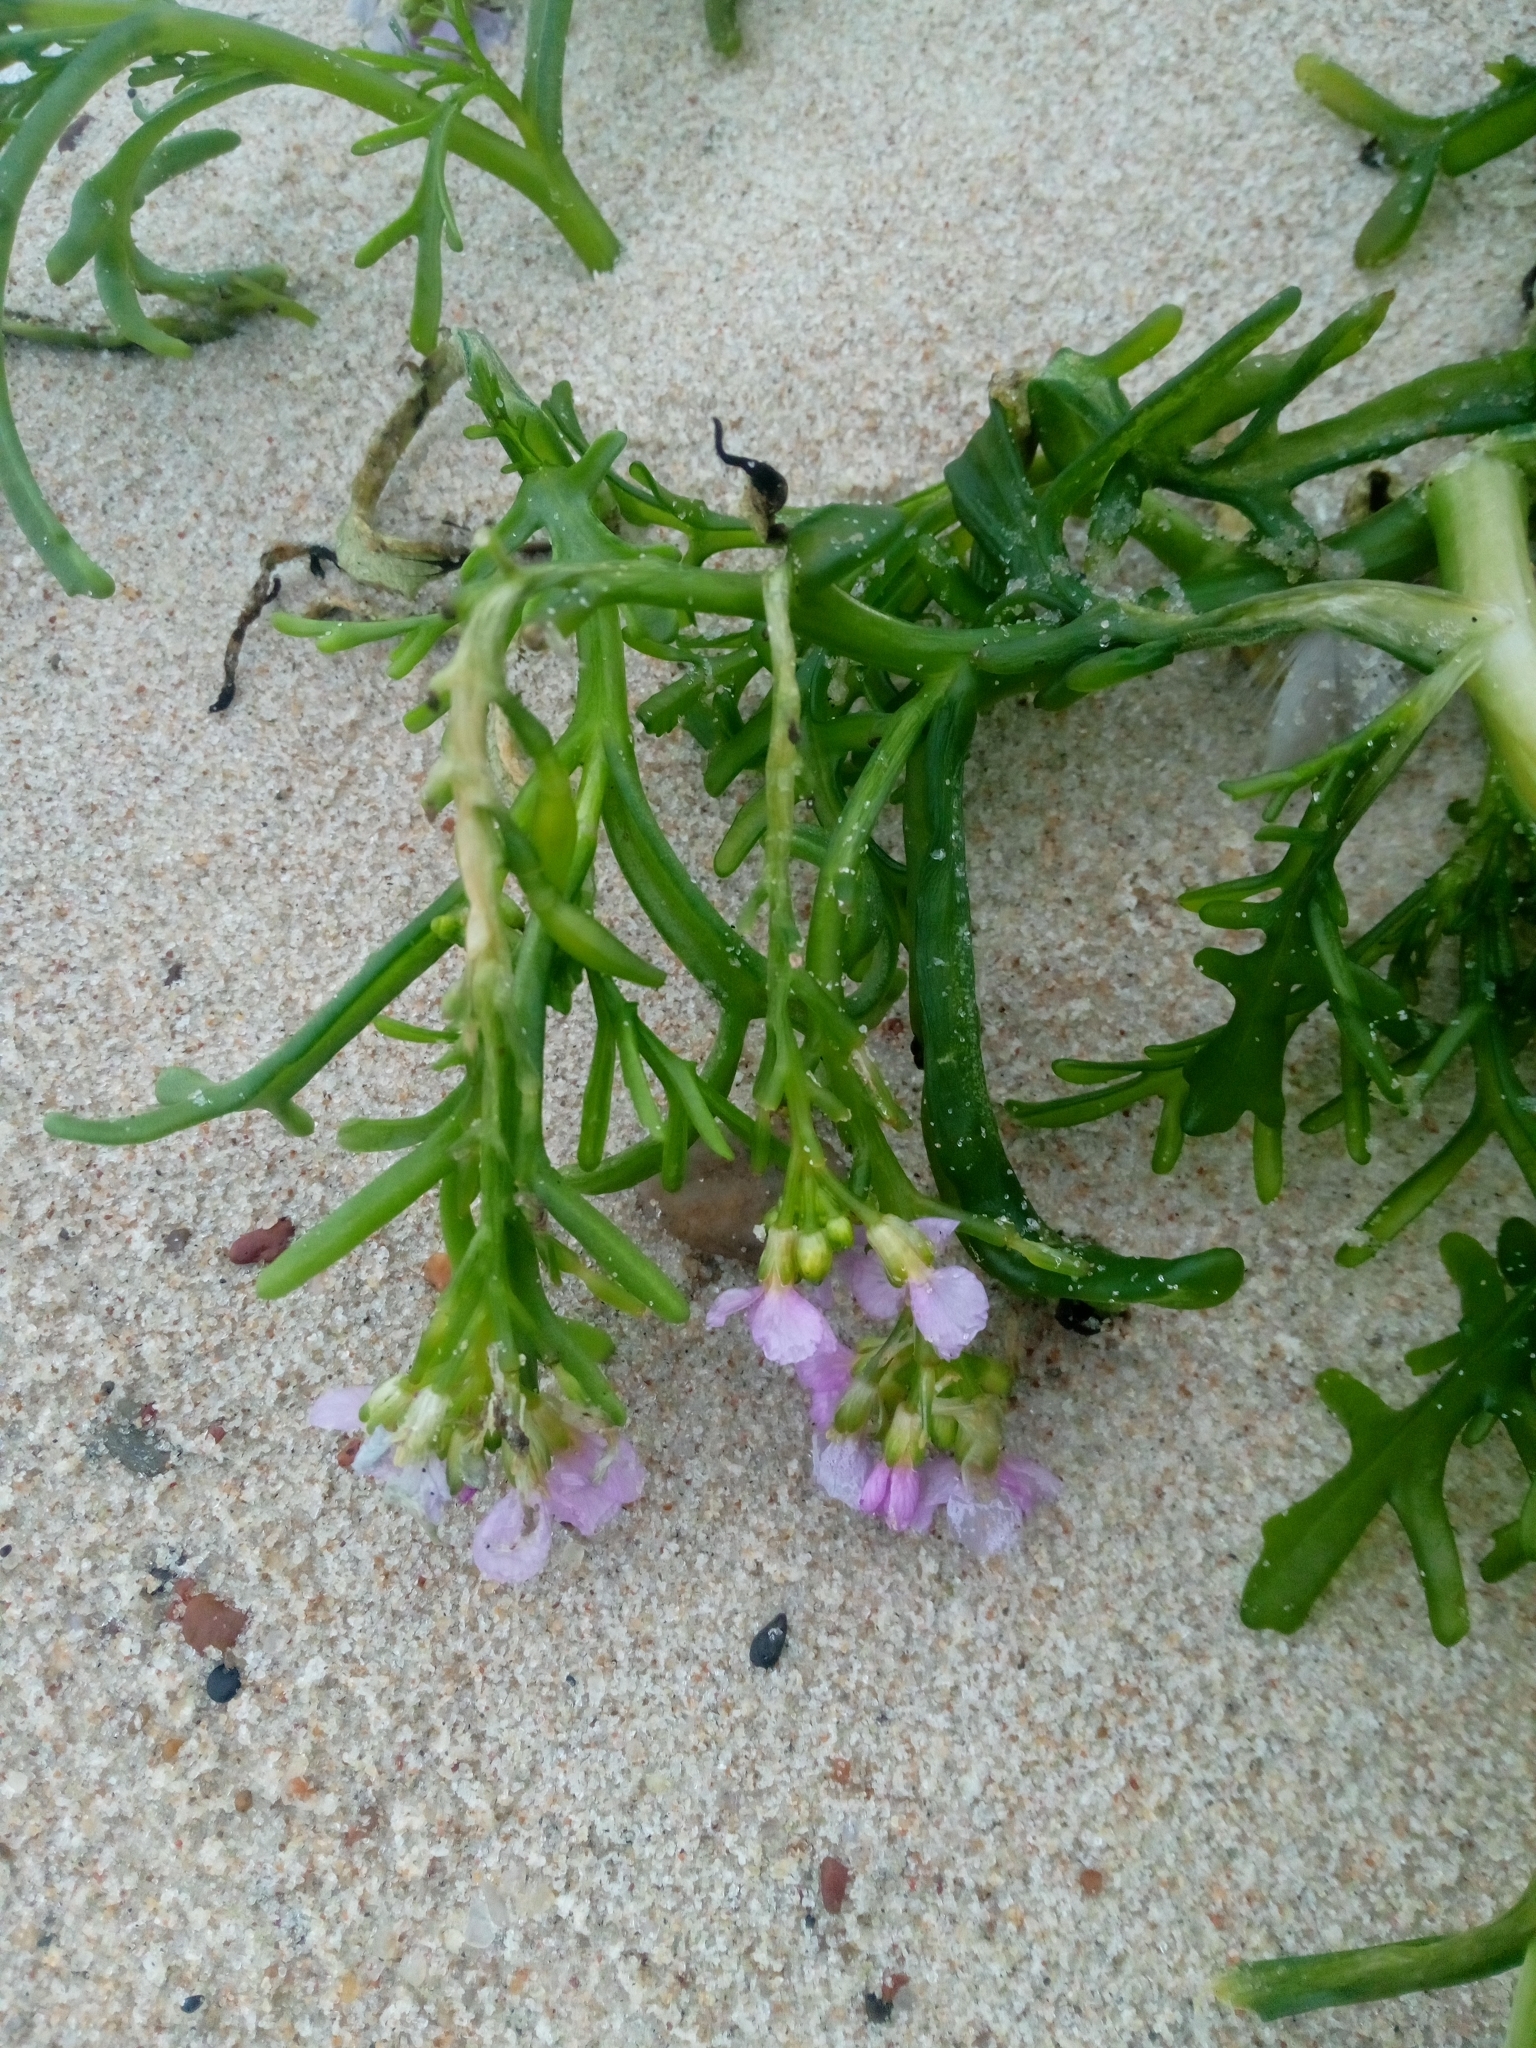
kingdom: Plantae
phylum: Tracheophyta
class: Magnoliopsida
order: Brassicales
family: Brassicaceae
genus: Cakile
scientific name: Cakile maritima
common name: Sea rocket
